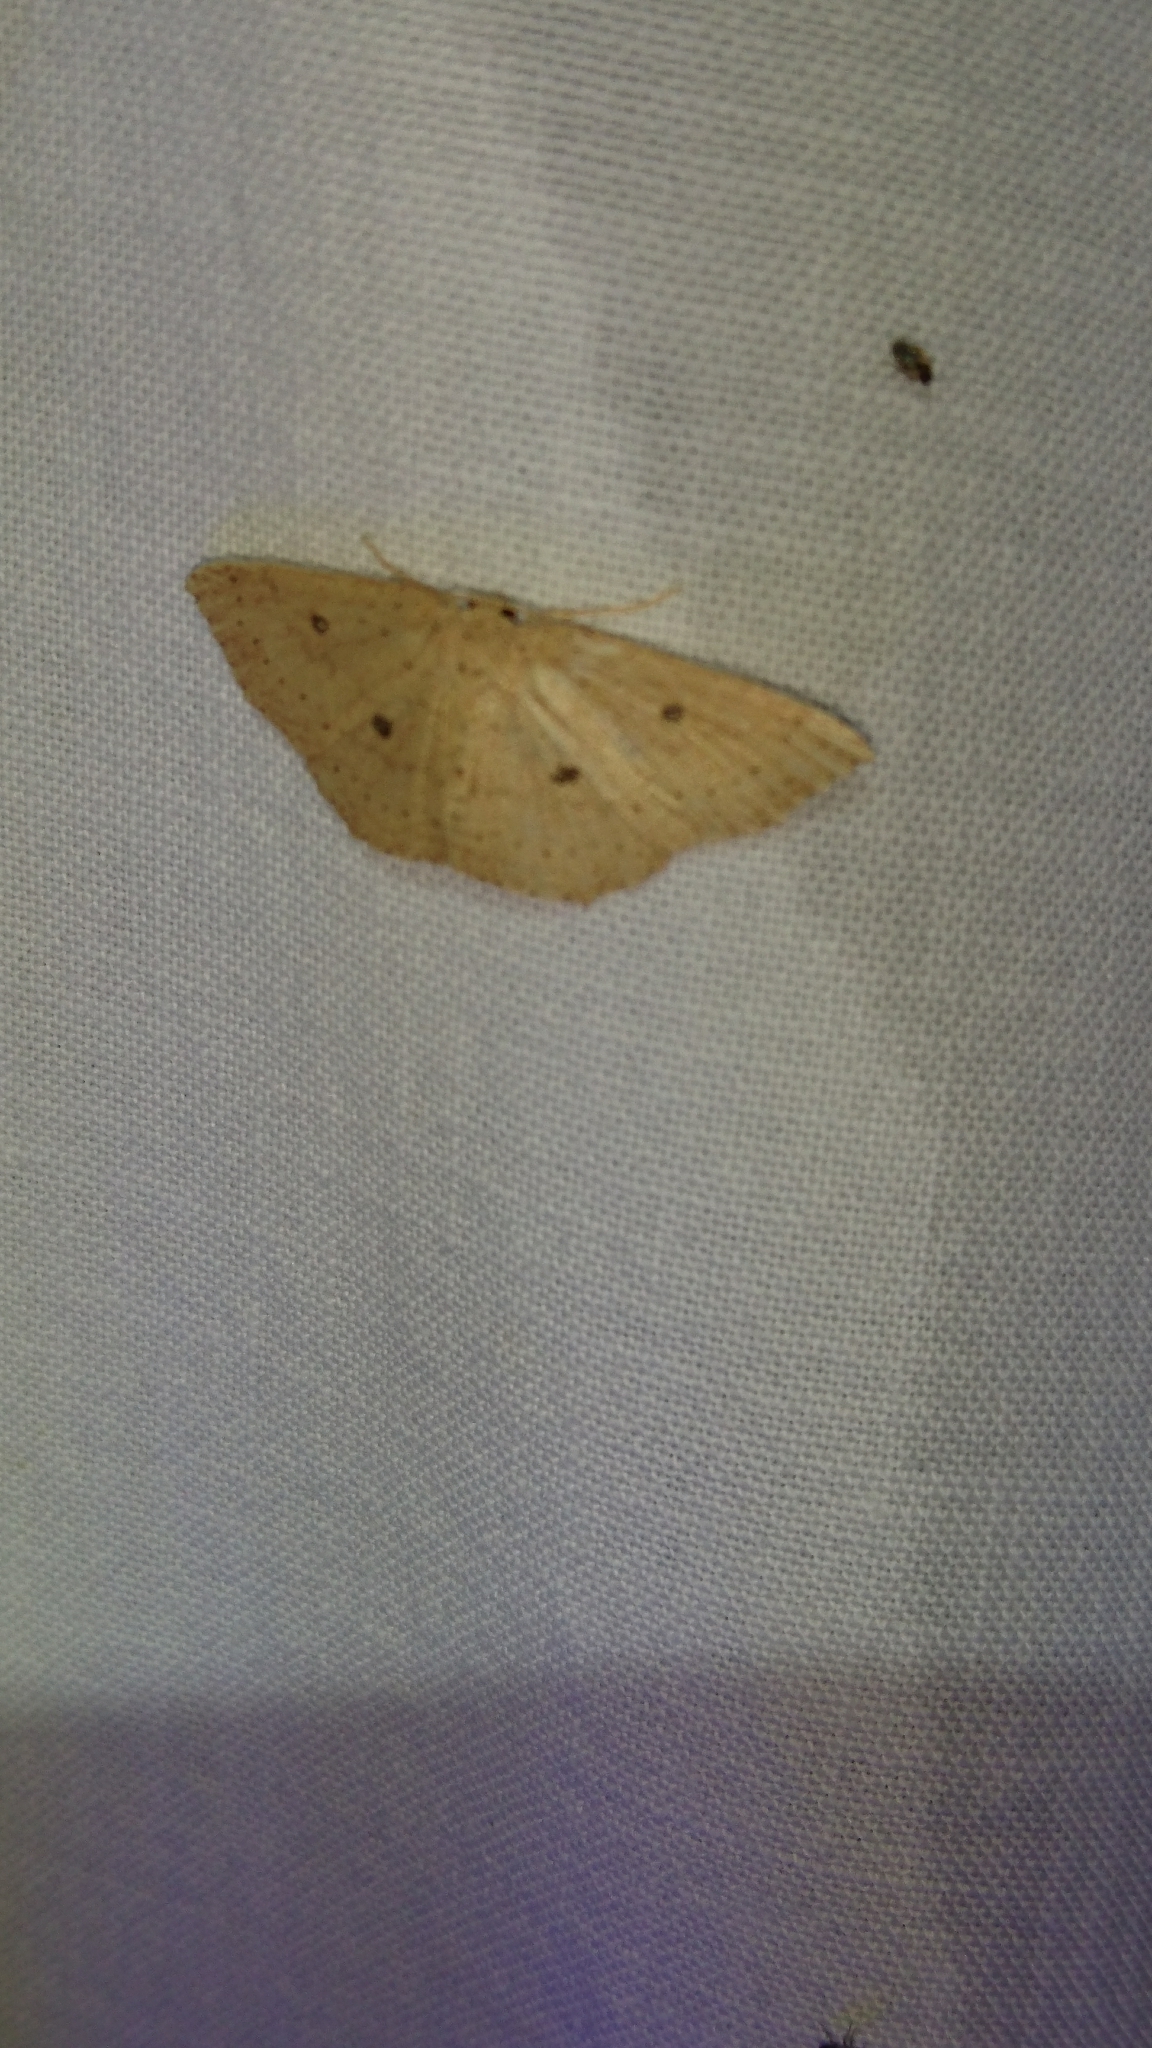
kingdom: Animalia
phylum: Arthropoda
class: Insecta
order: Lepidoptera
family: Geometridae
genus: Cyclophora
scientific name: Cyclophora packardi
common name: Packard's wave
